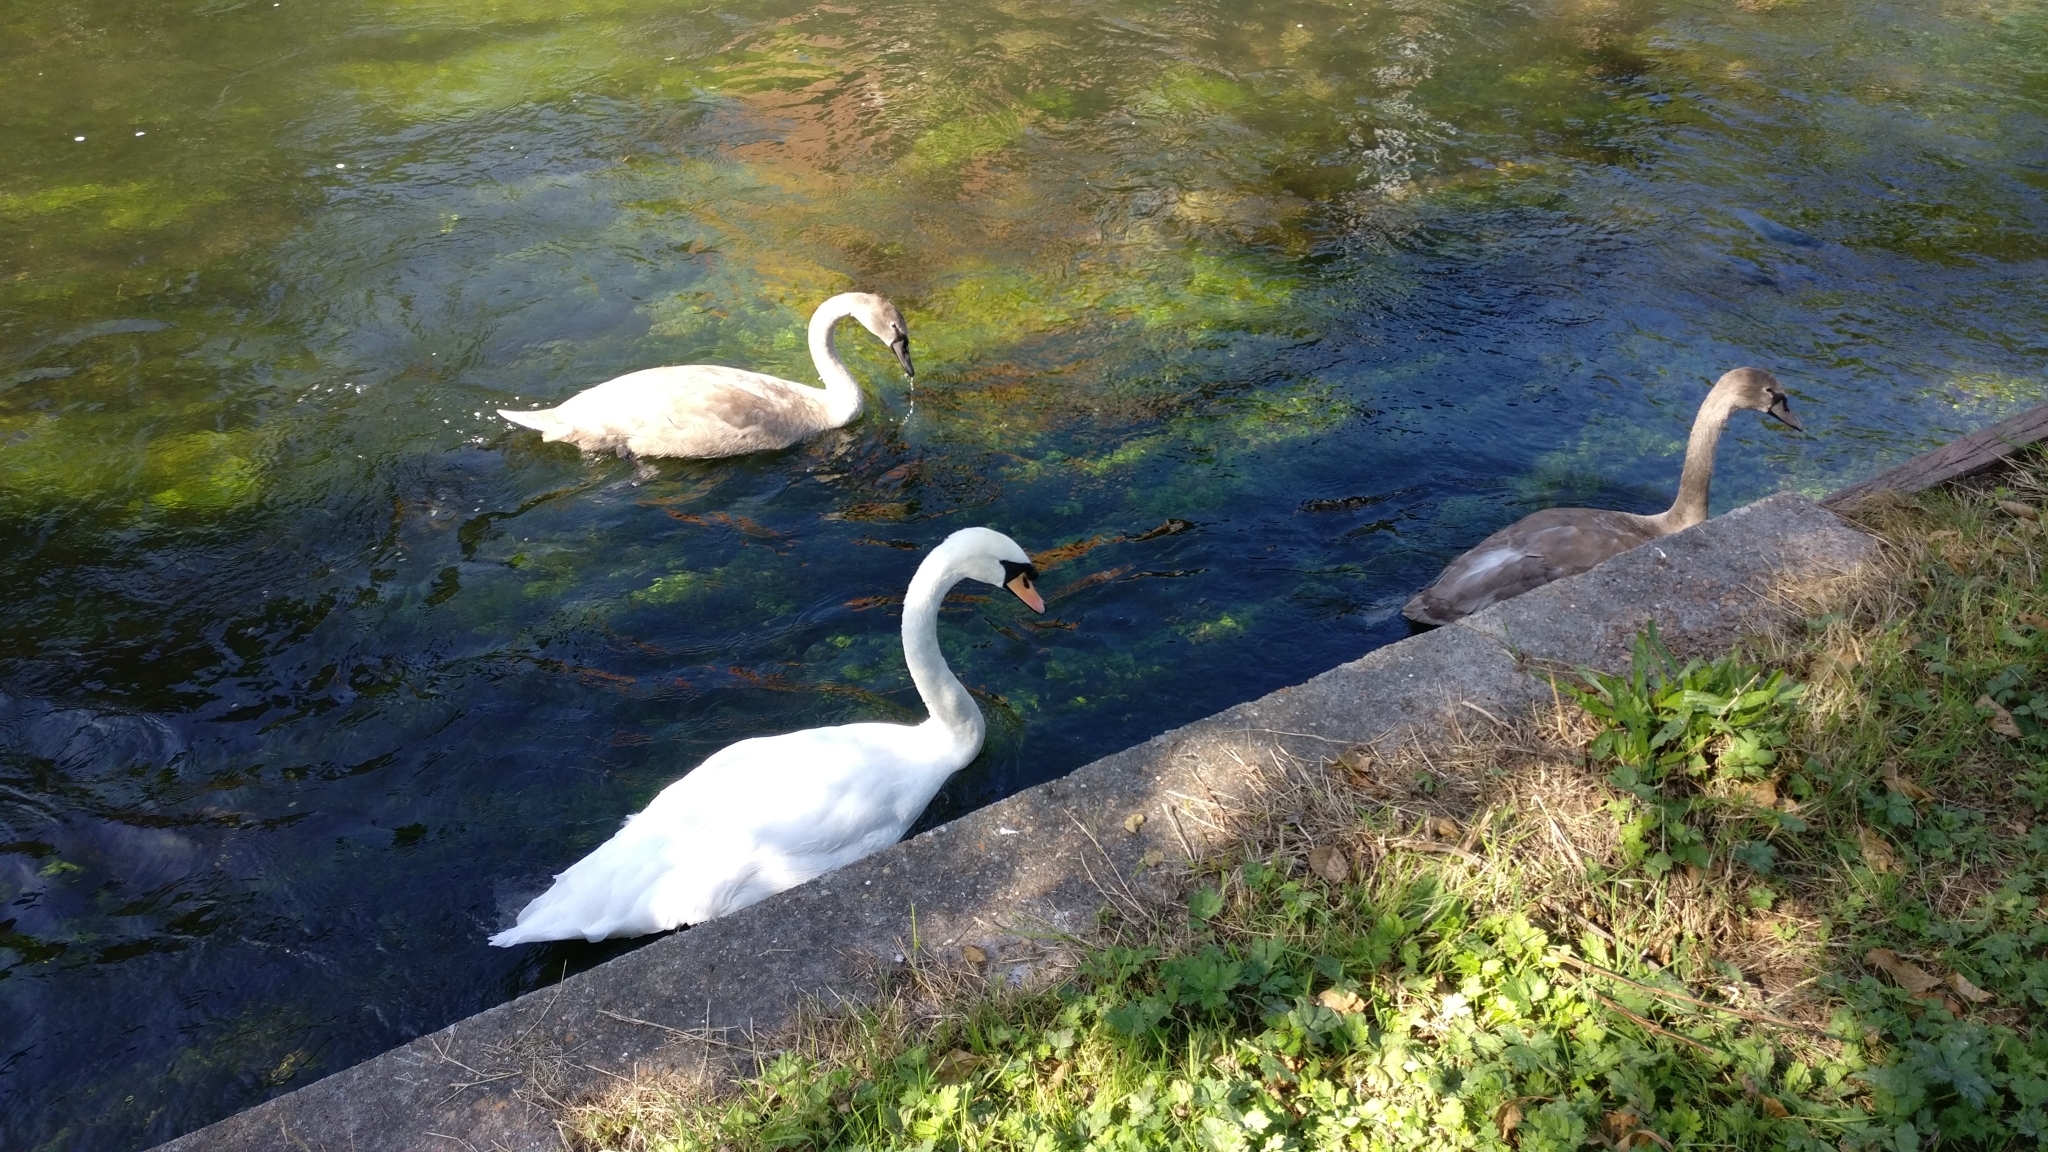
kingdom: Animalia
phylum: Chordata
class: Aves
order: Anseriformes
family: Anatidae
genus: Cygnus
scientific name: Cygnus olor
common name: Mute swan
